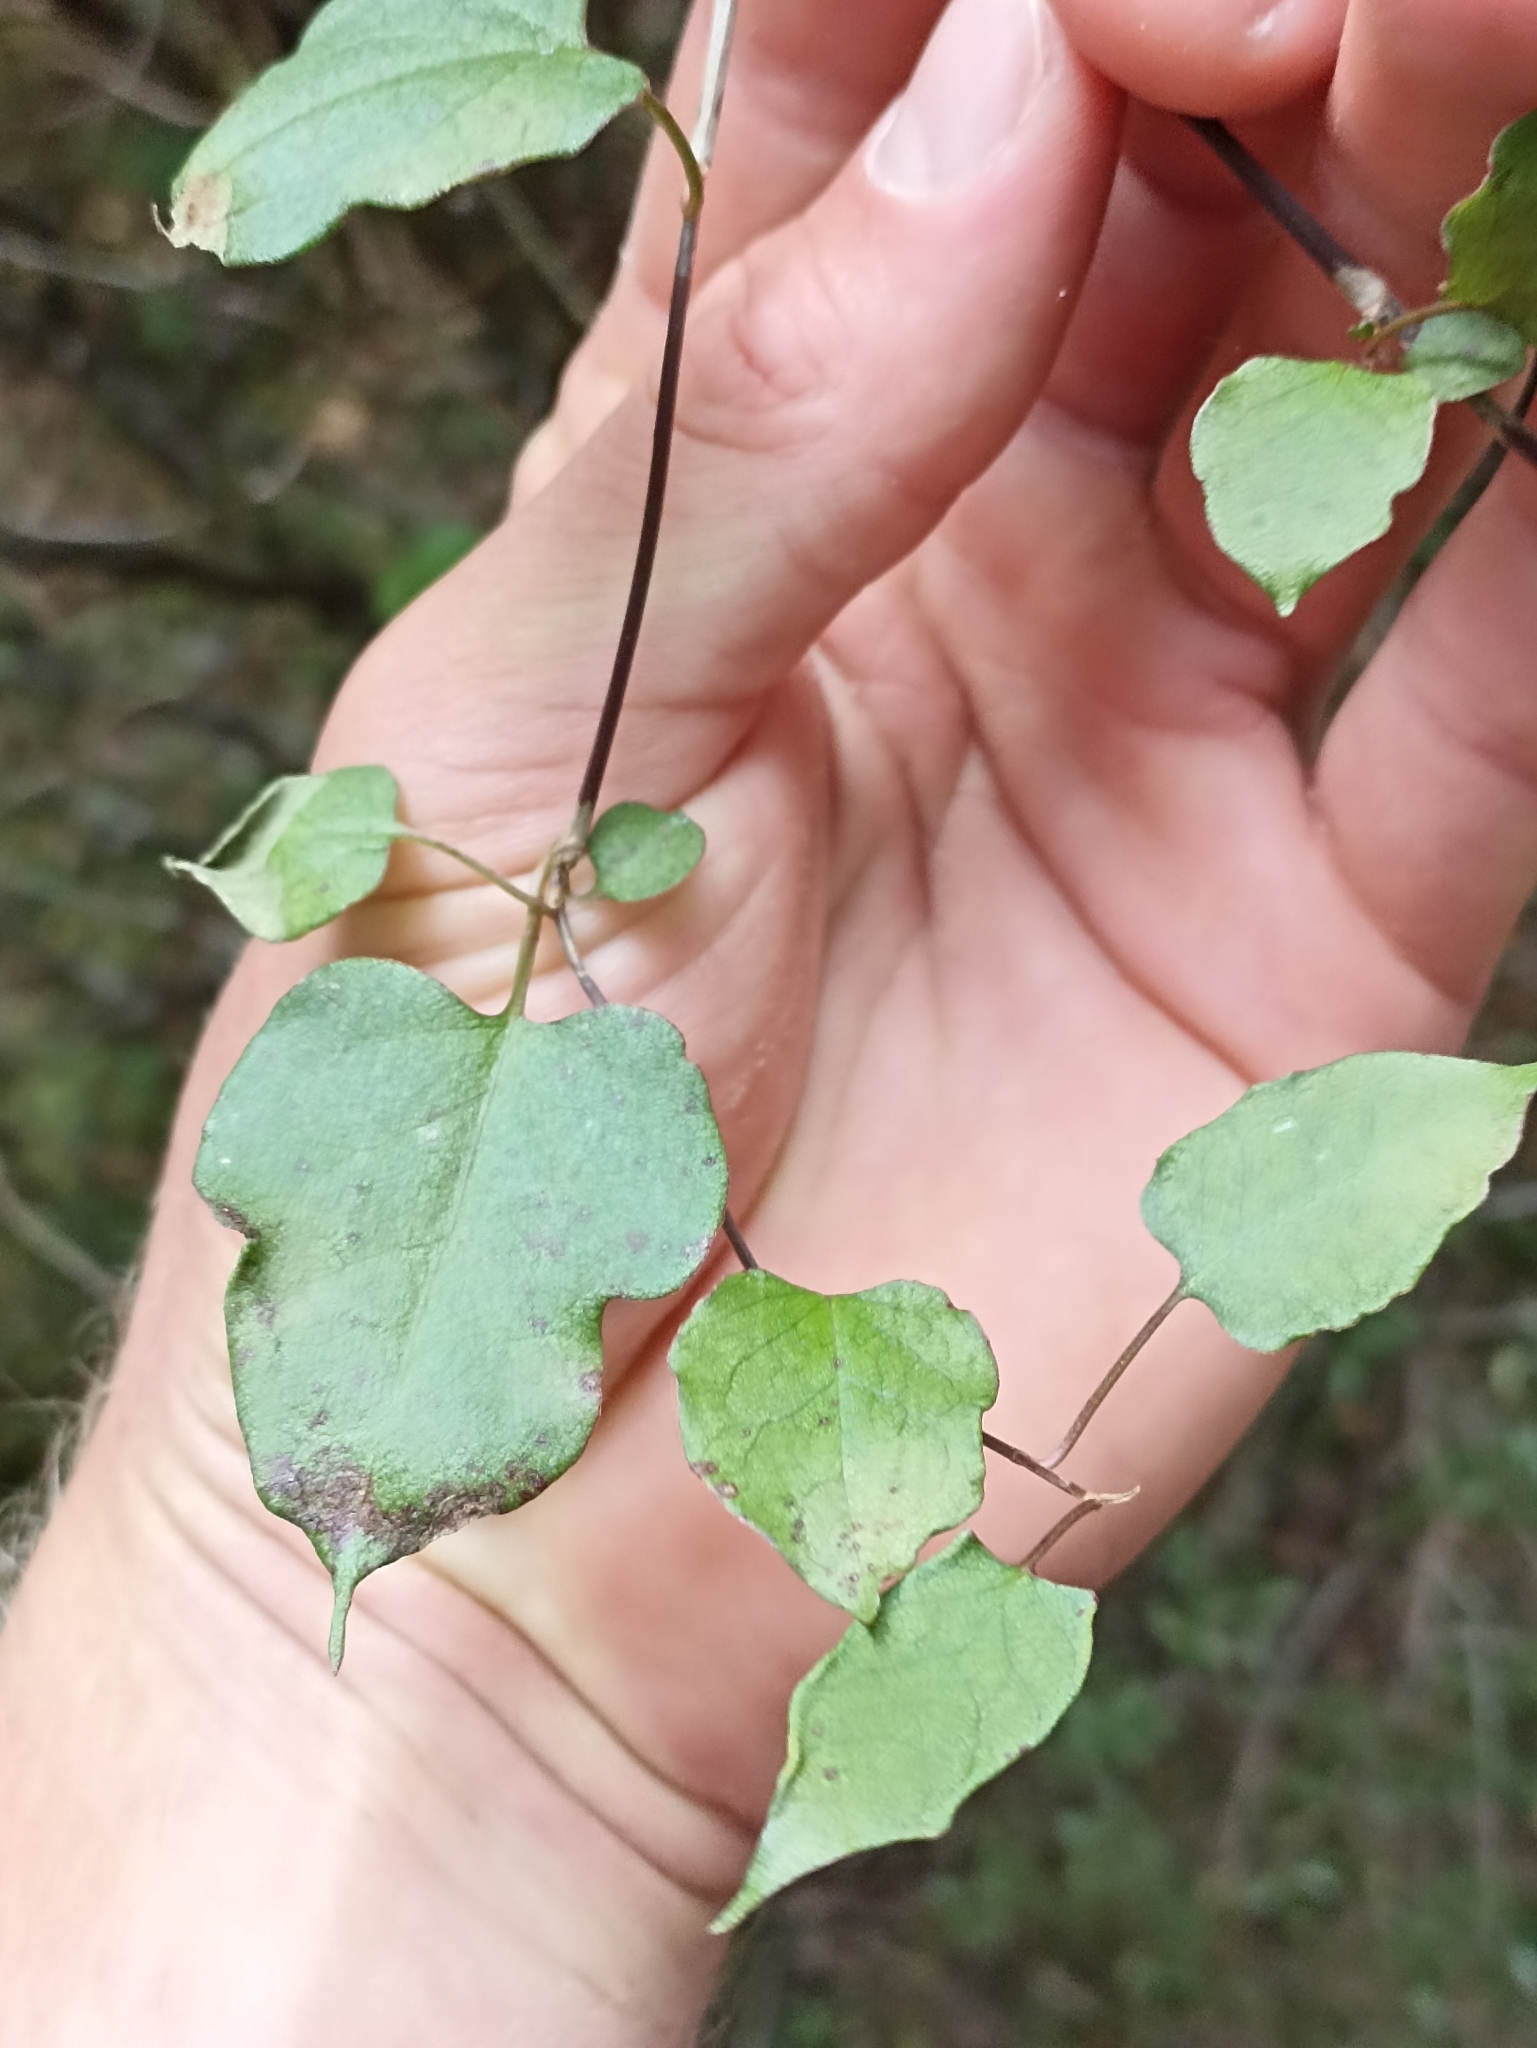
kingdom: Plantae
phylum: Tracheophyta
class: Magnoliopsida
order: Caryophyllales
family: Polygonaceae
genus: Muehlenbeckia
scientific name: Muehlenbeckia australis
